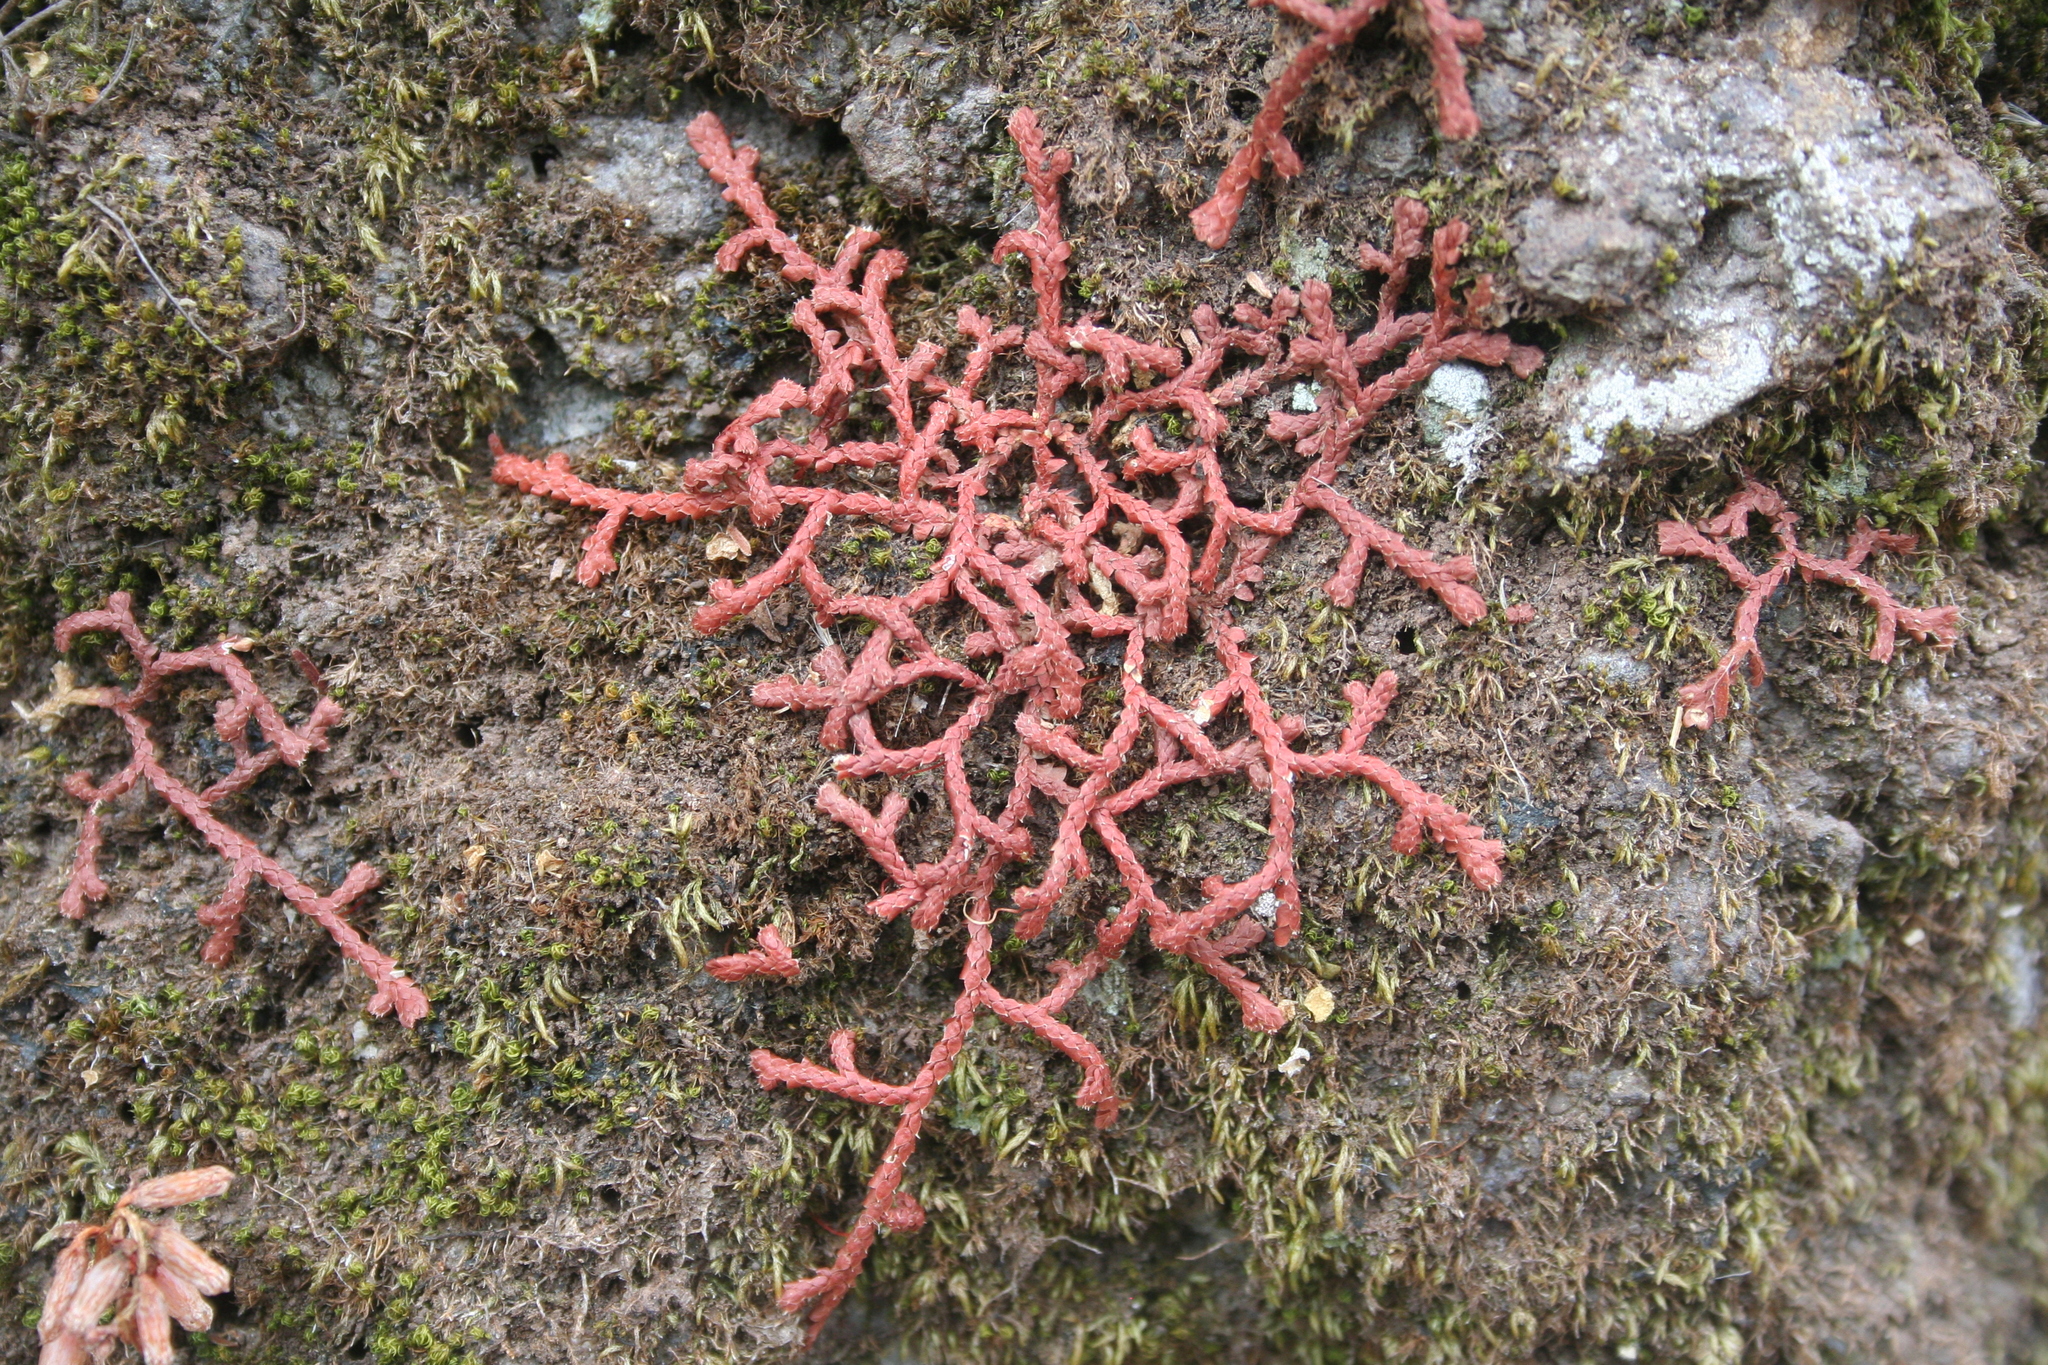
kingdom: Plantae
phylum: Tracheophyta
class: Lycopodiopsida
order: Selaginellales
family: Selaginellaceae
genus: Selaginella
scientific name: Selaginella denticulata
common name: Toothed-leaved clubmoss
